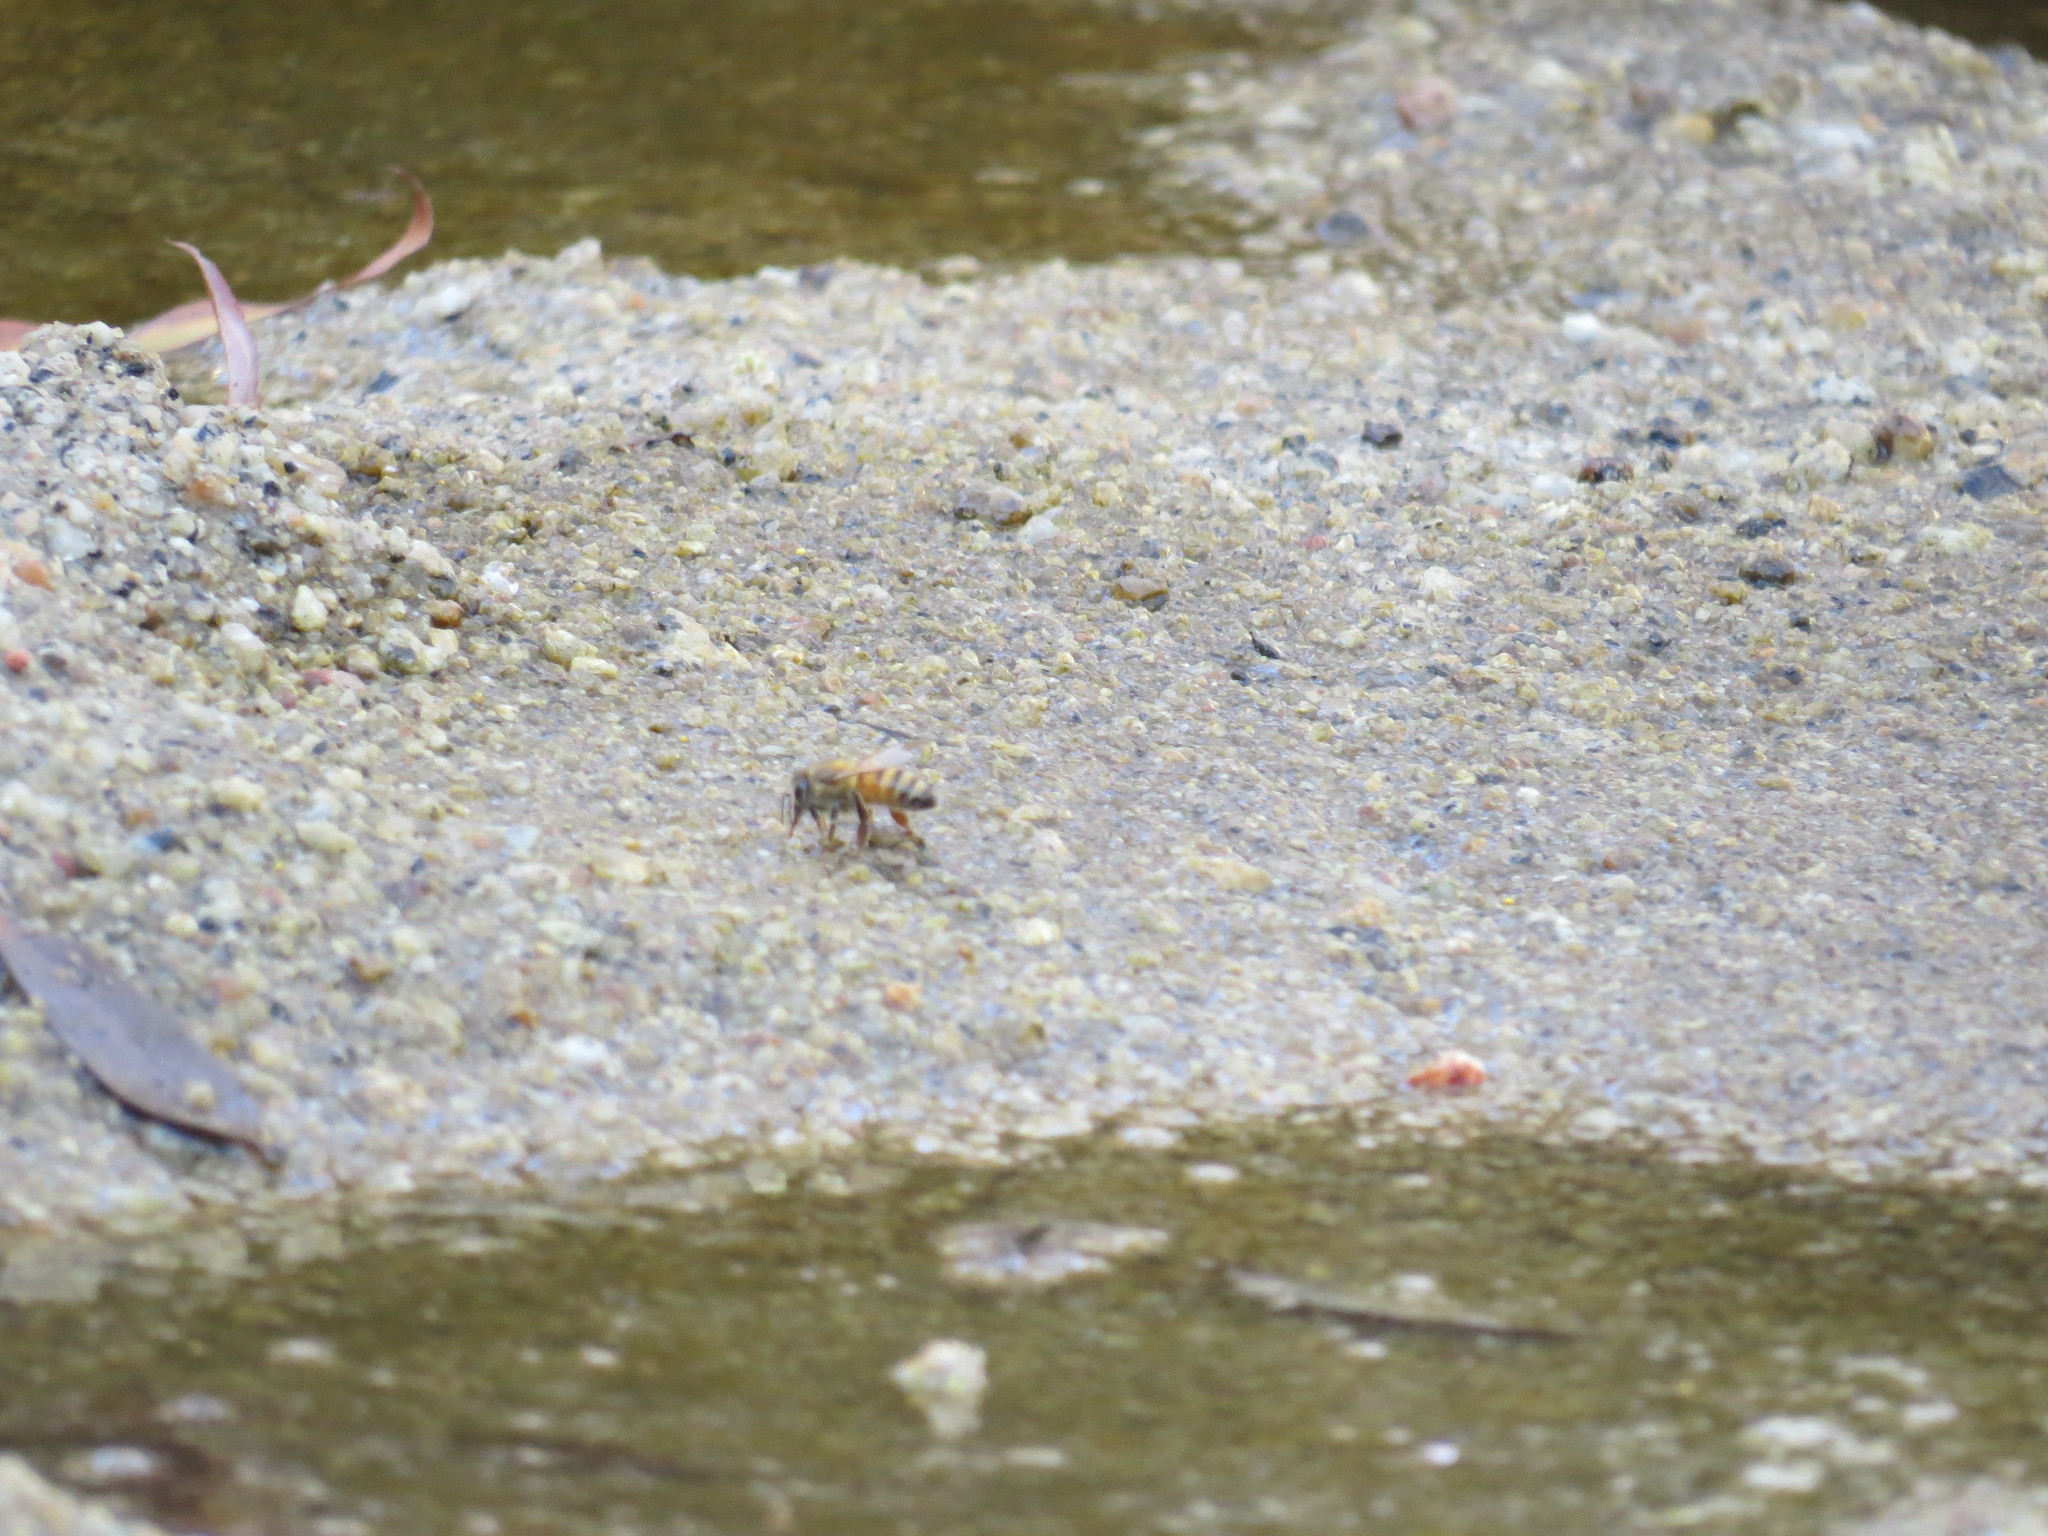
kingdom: Animalia
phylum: Arthropoda
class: Insecta
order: Hymenoptera
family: Apidae
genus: Apis
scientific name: Apis mellifera
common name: Honey bee
